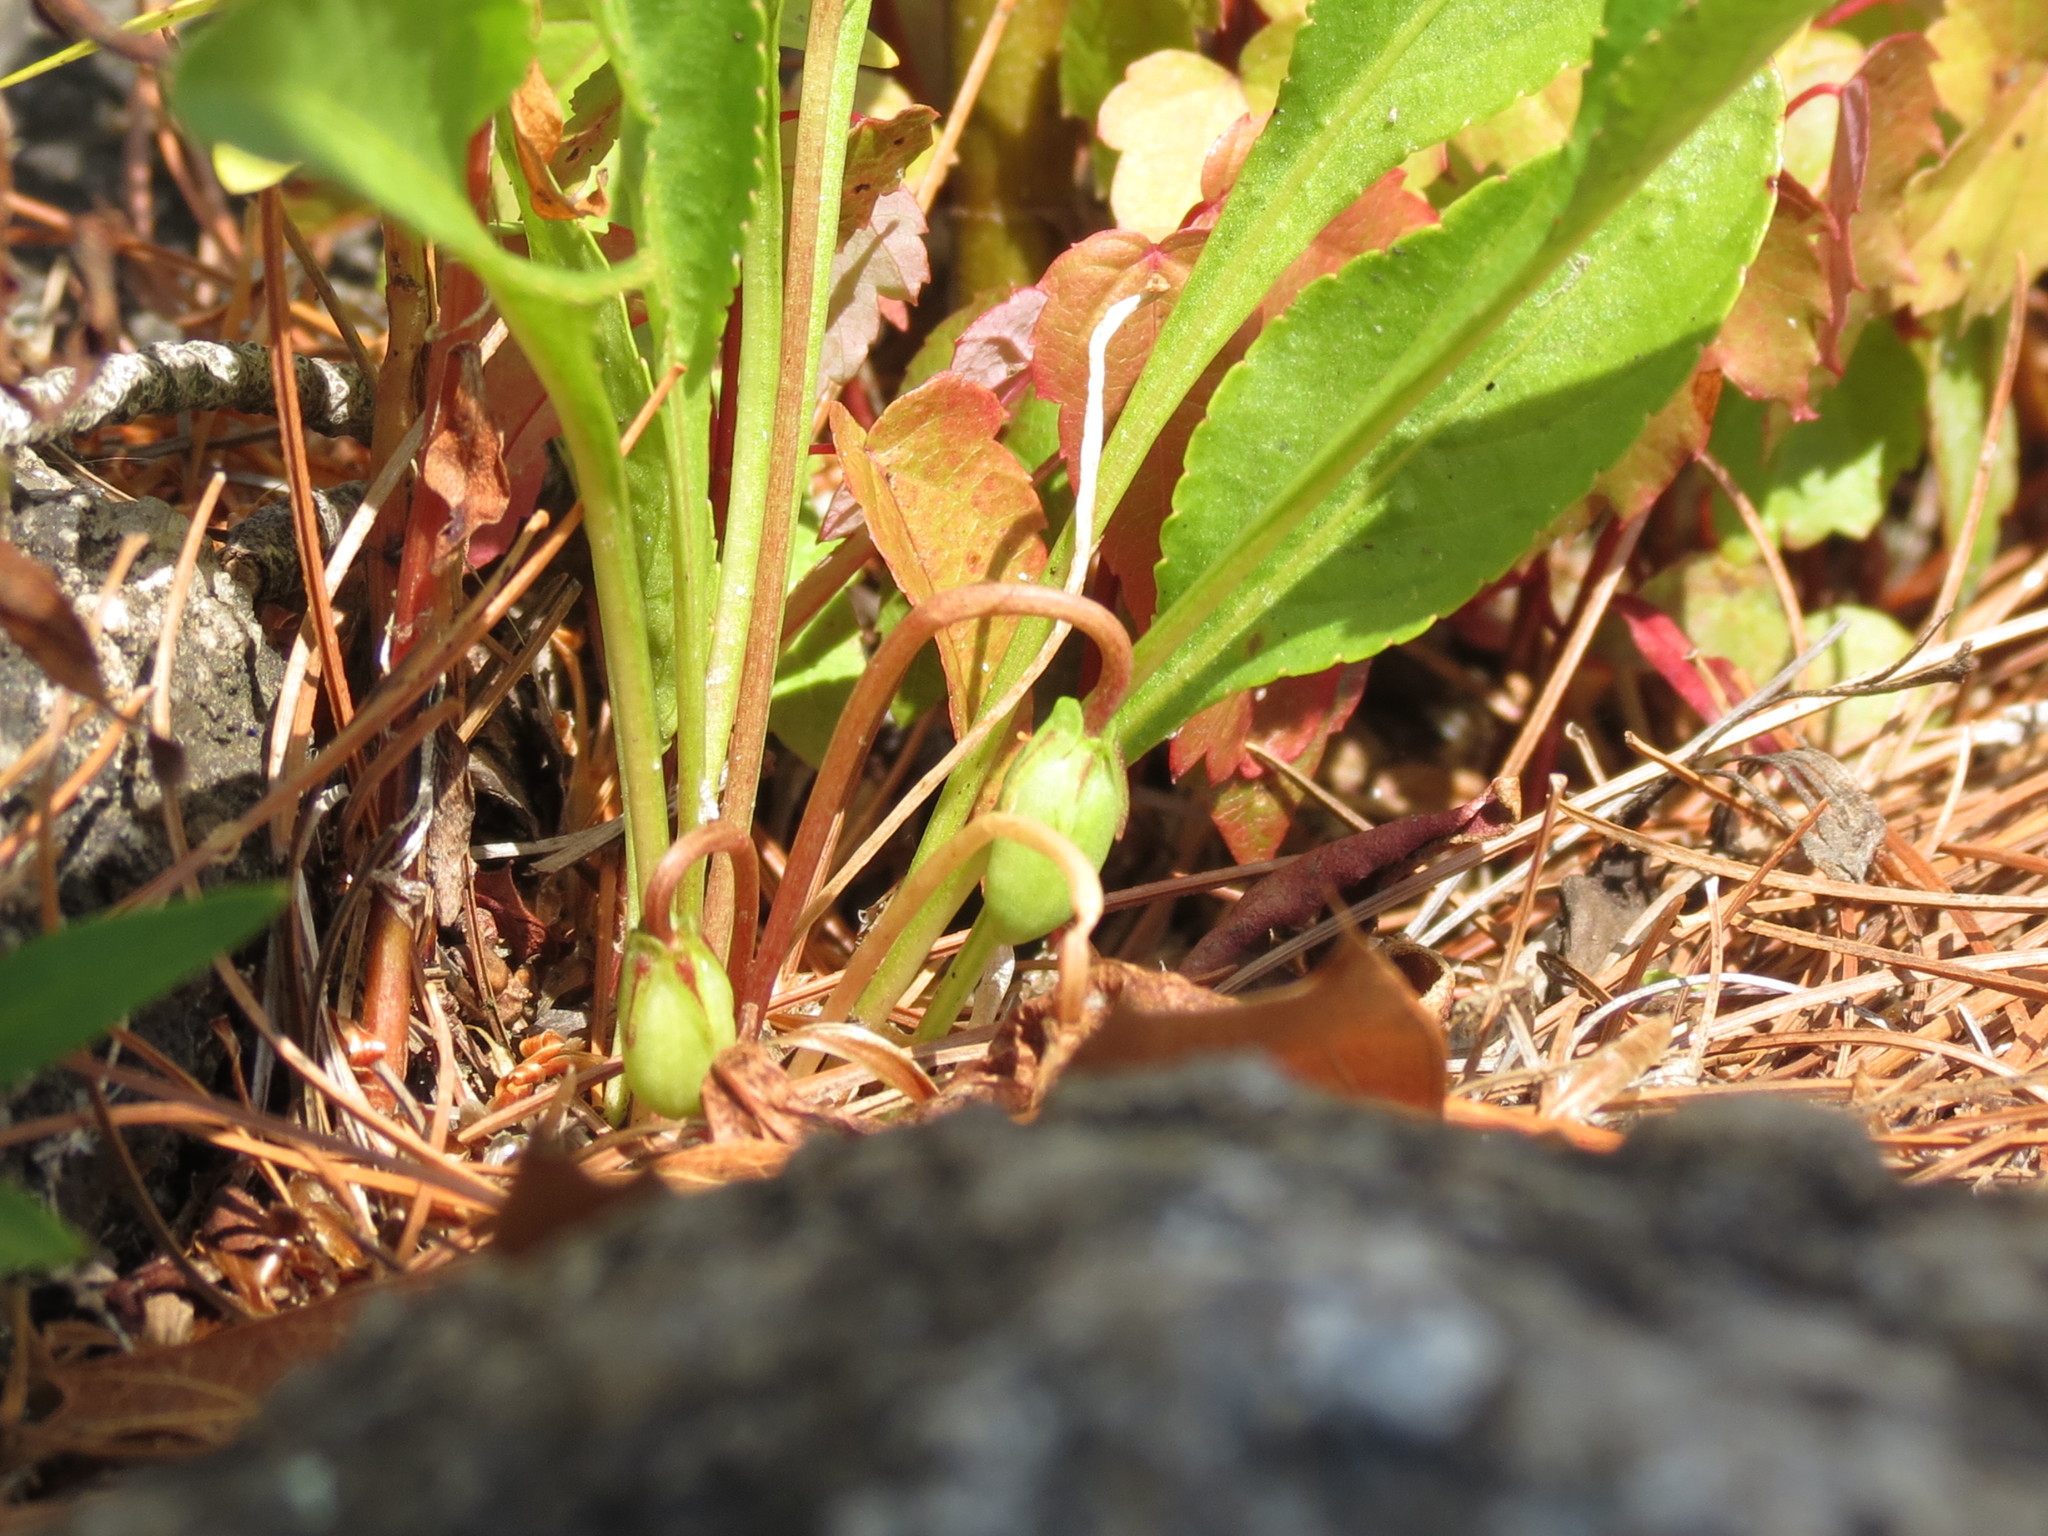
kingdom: Plantae
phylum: Tracheophyta
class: Magnoliopsida
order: Malpighiales
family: Violaceae
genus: Viola
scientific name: Viola lanceolata
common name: Bog white violet
